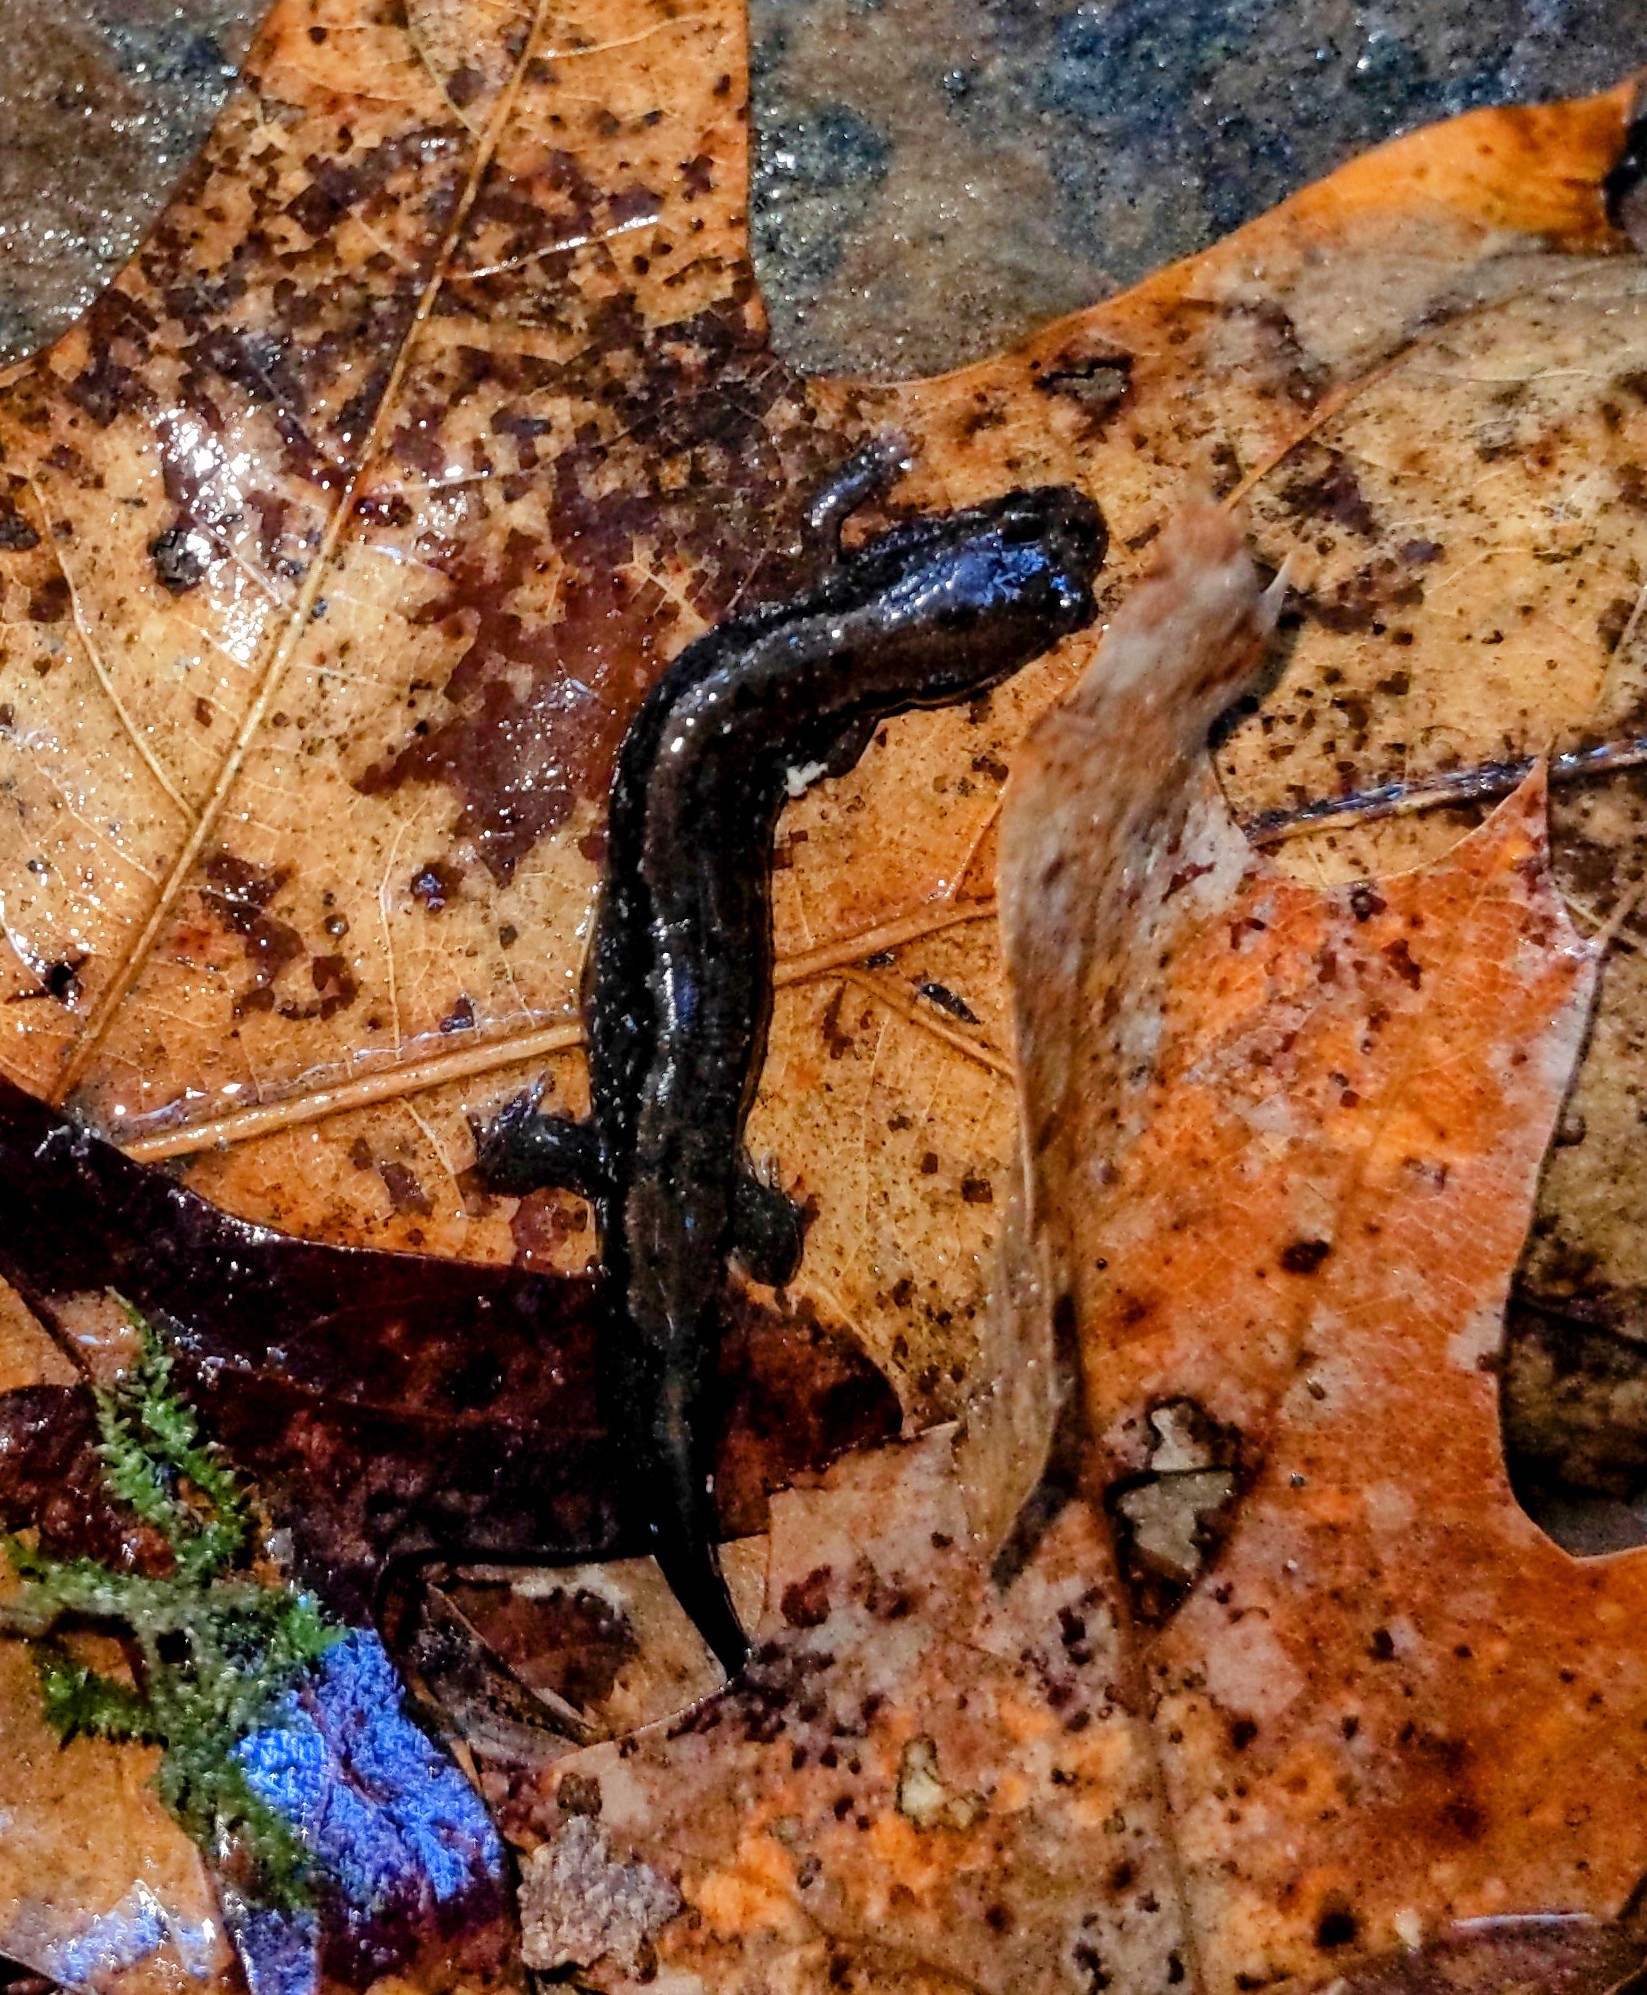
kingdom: Animalia
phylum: Chordata
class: Amphibia
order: Caudata
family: Plethodontidae
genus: Desmognathus
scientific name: Desmognathus fuscus
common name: Northern dusky salamander
